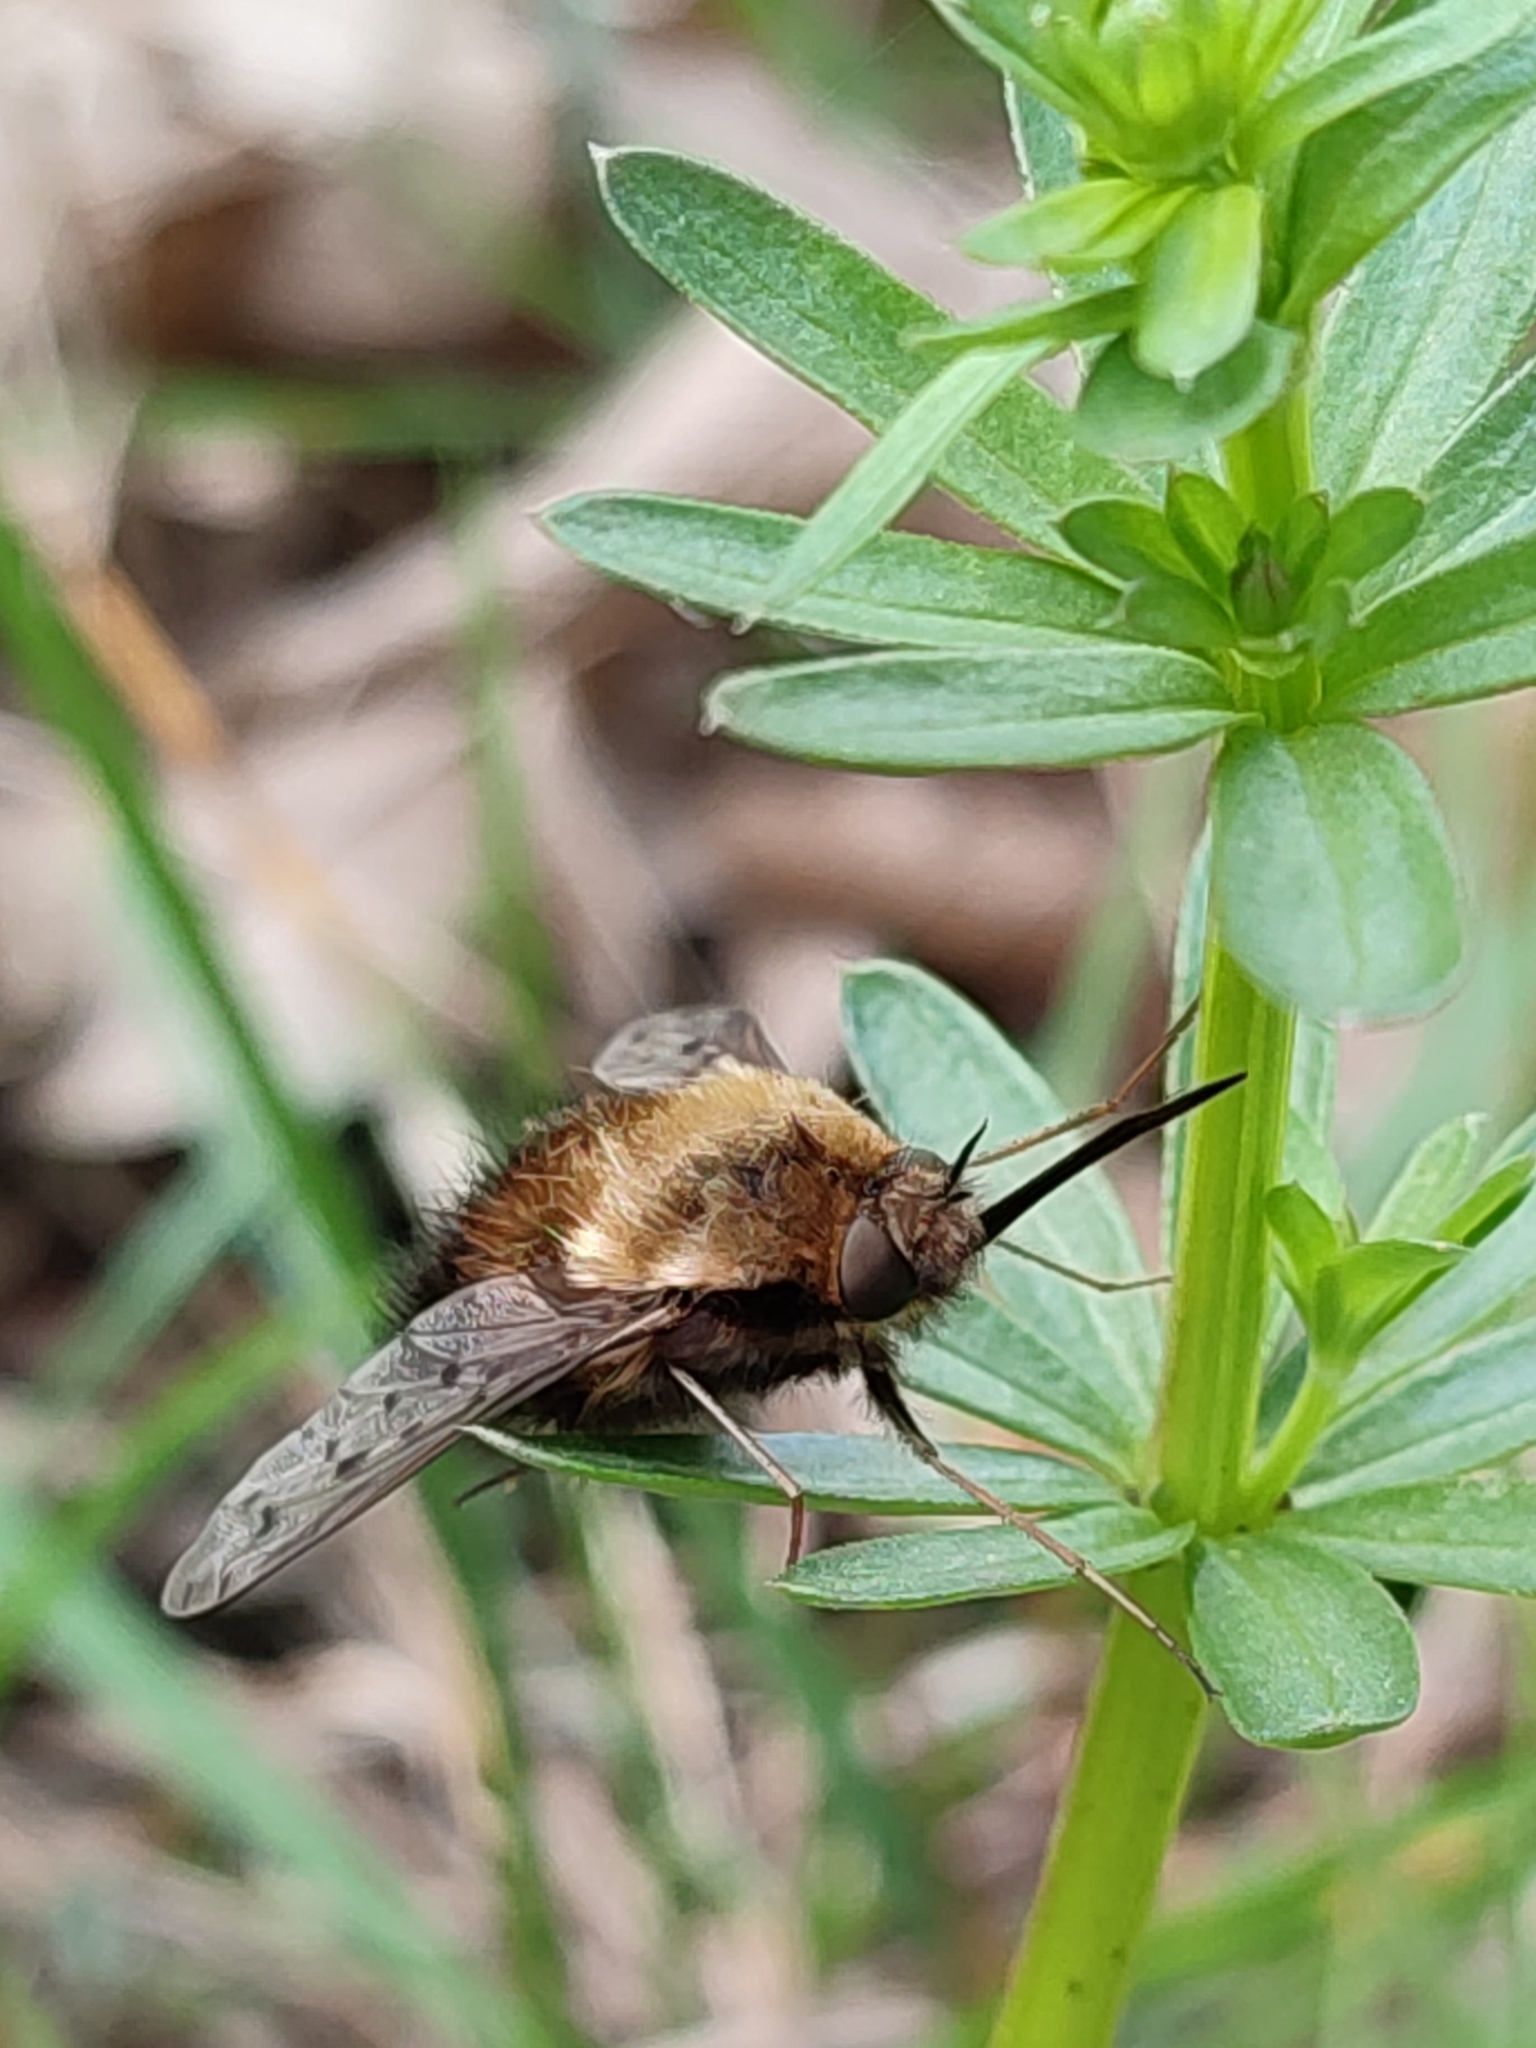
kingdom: Animalia
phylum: Arthropoda
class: Insecta
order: Diptera
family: Bombyliidae
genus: Bombylius
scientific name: Bombylius discolor
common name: Dotted bee-fly
